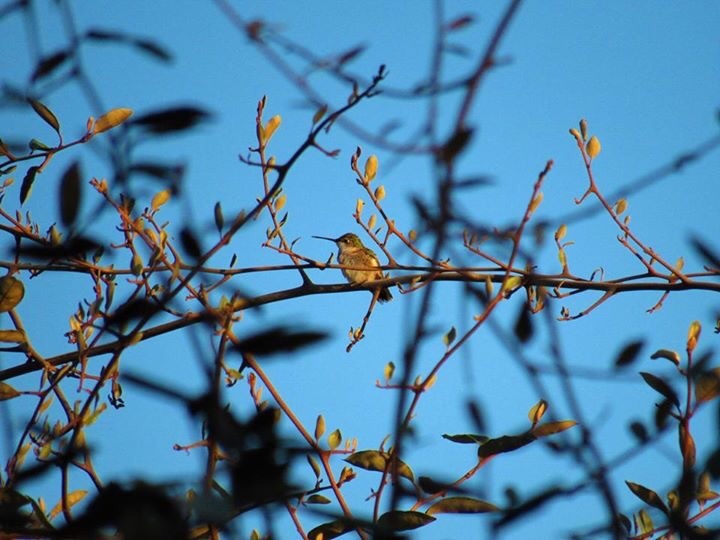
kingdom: Animalia
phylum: Chordata
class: Aves
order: Apodiformes
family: Trochilidae
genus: Archilochus
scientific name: Archilochus colubris
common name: Ruby-throated hummingbird
